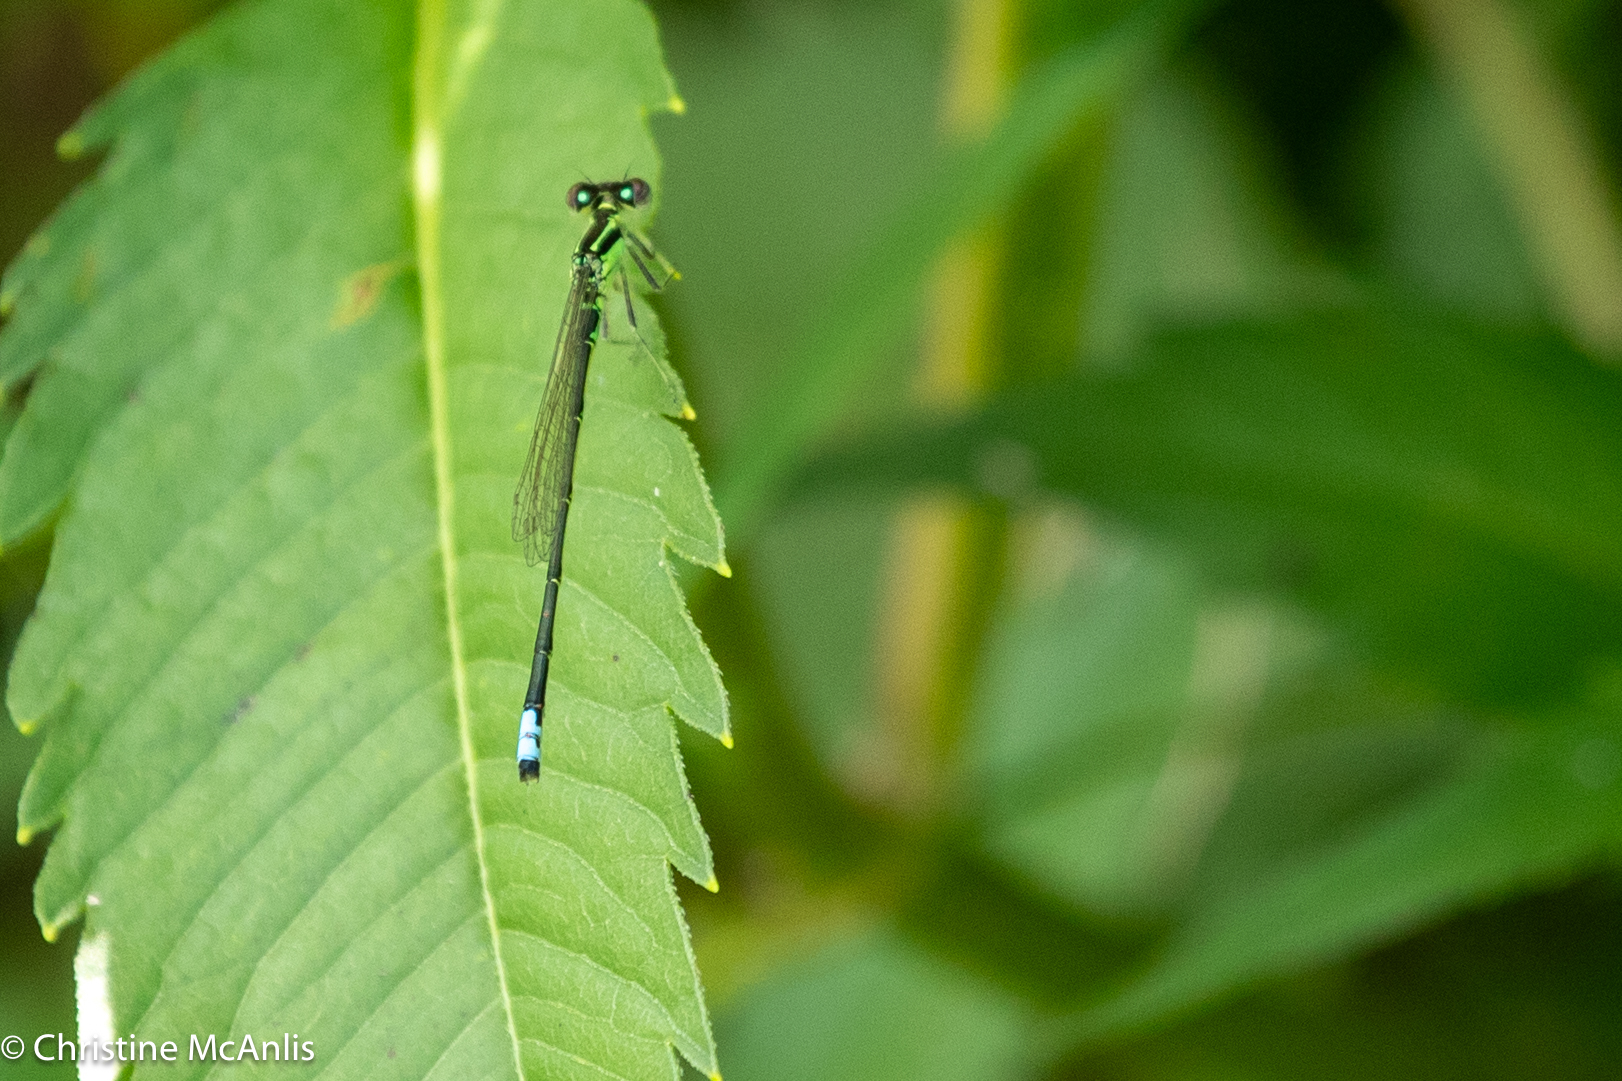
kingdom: Animalia
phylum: Arthropoda
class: Insecta
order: Odonata
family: Coenagrionidae
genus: Ischnura
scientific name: Ischnura verticalis
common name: Eastern forktail
